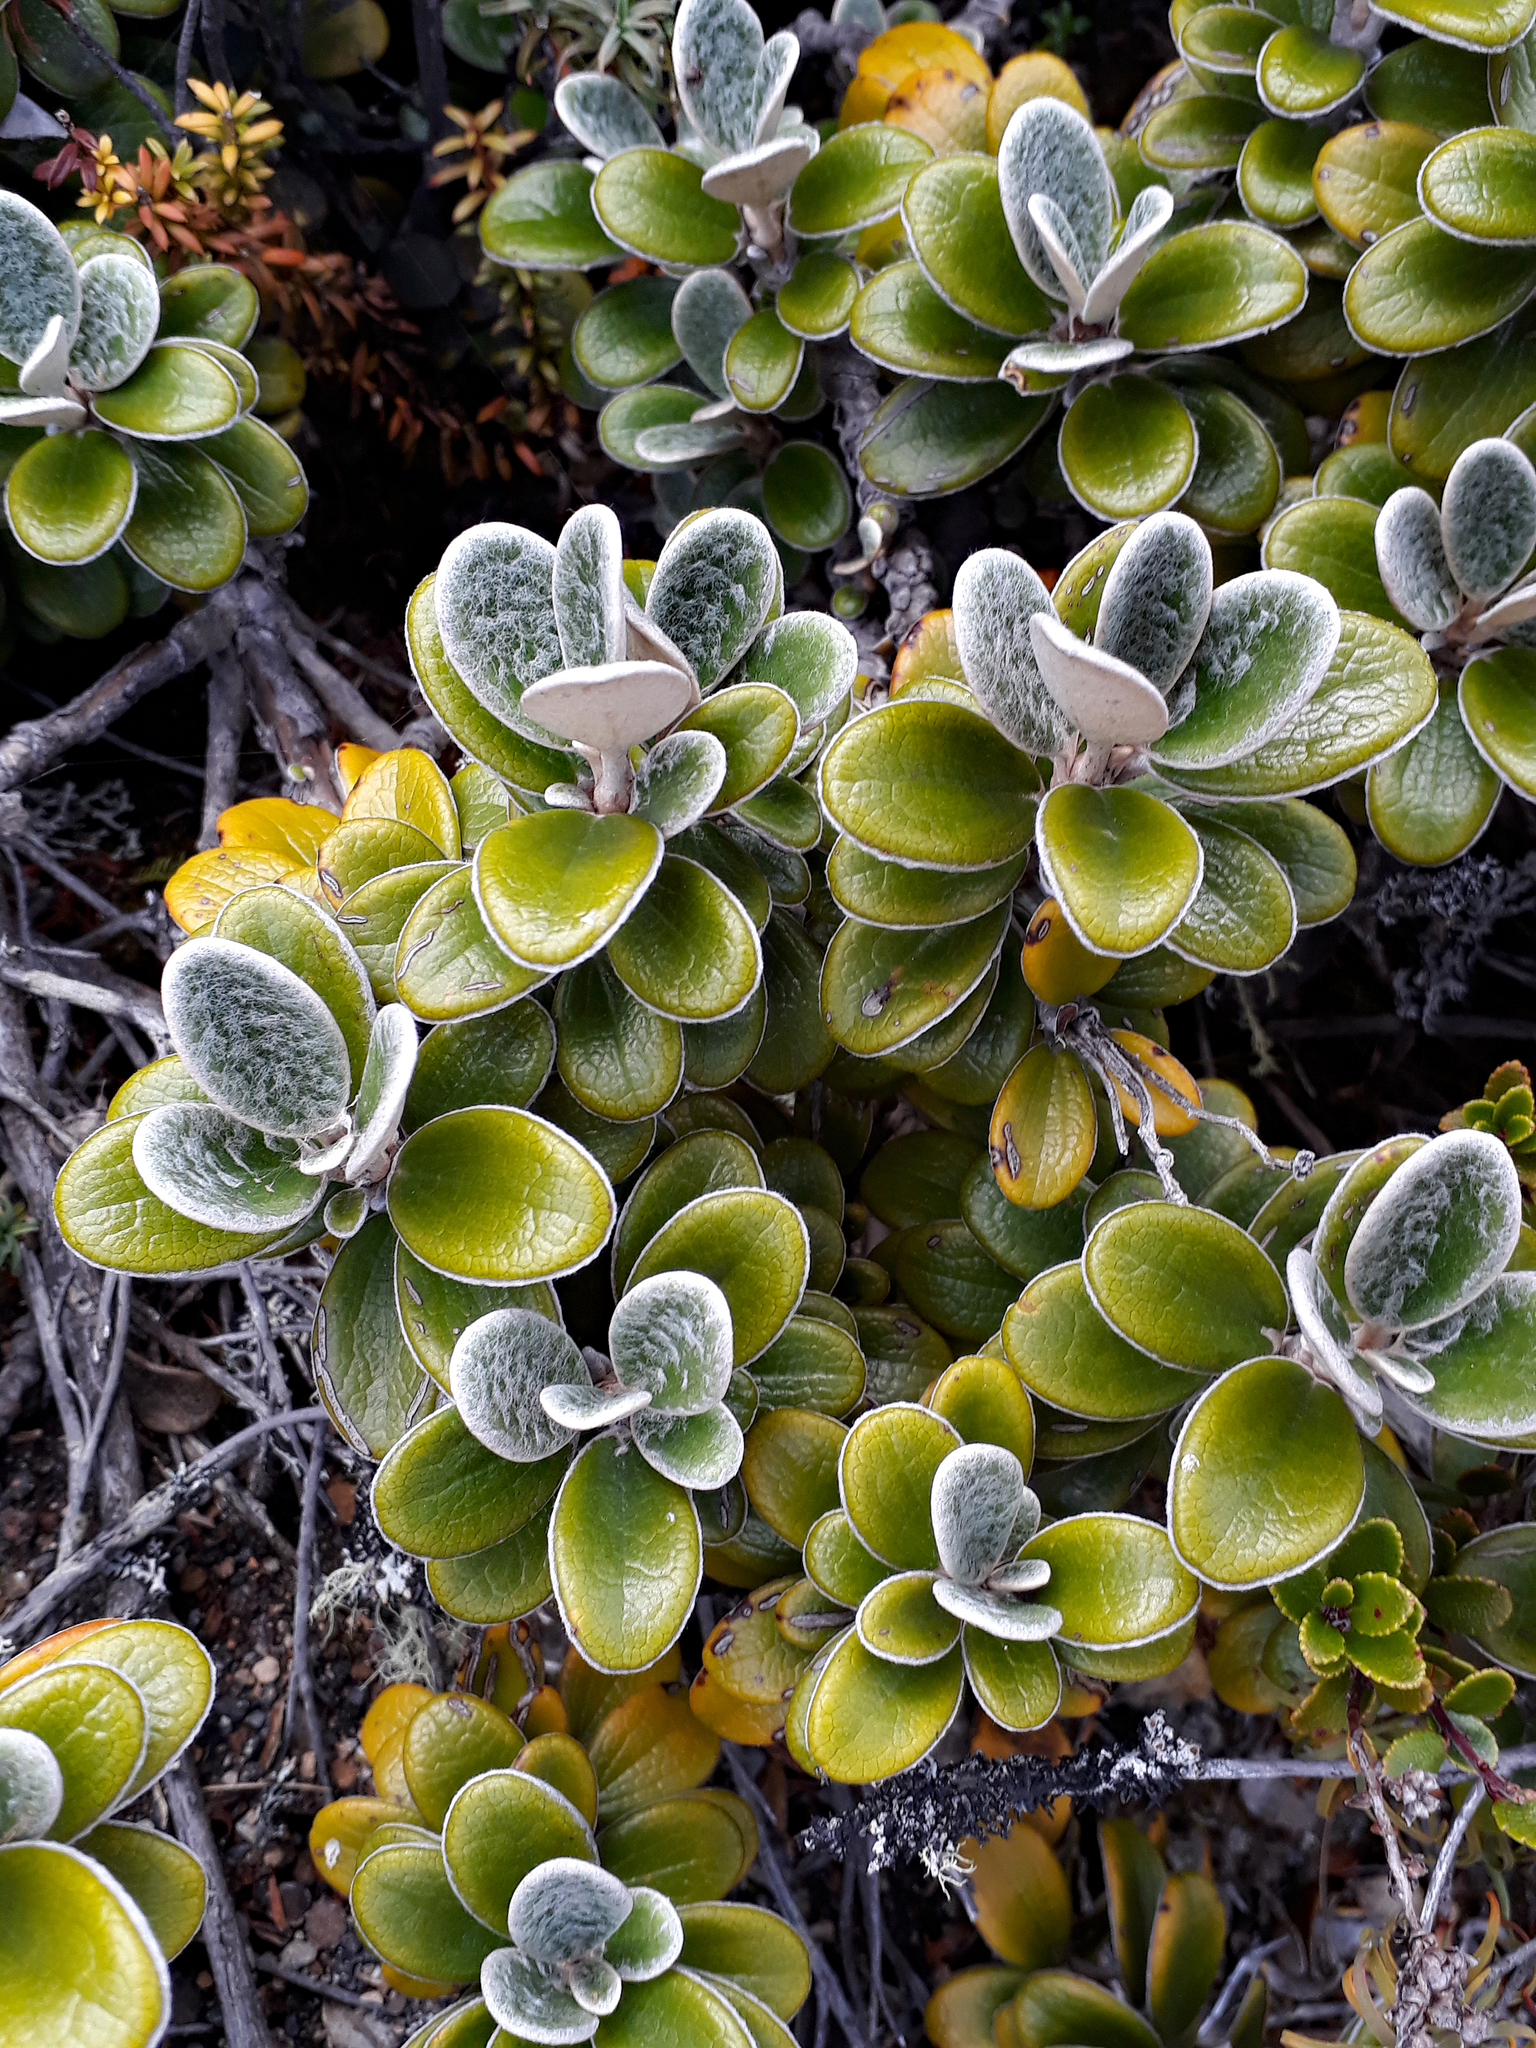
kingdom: Plantae
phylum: Tracheophyta
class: Magnoliopsida
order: Asterales
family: Asteraceae
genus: Brachyglottis
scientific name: Brachyglottis bidwillii
